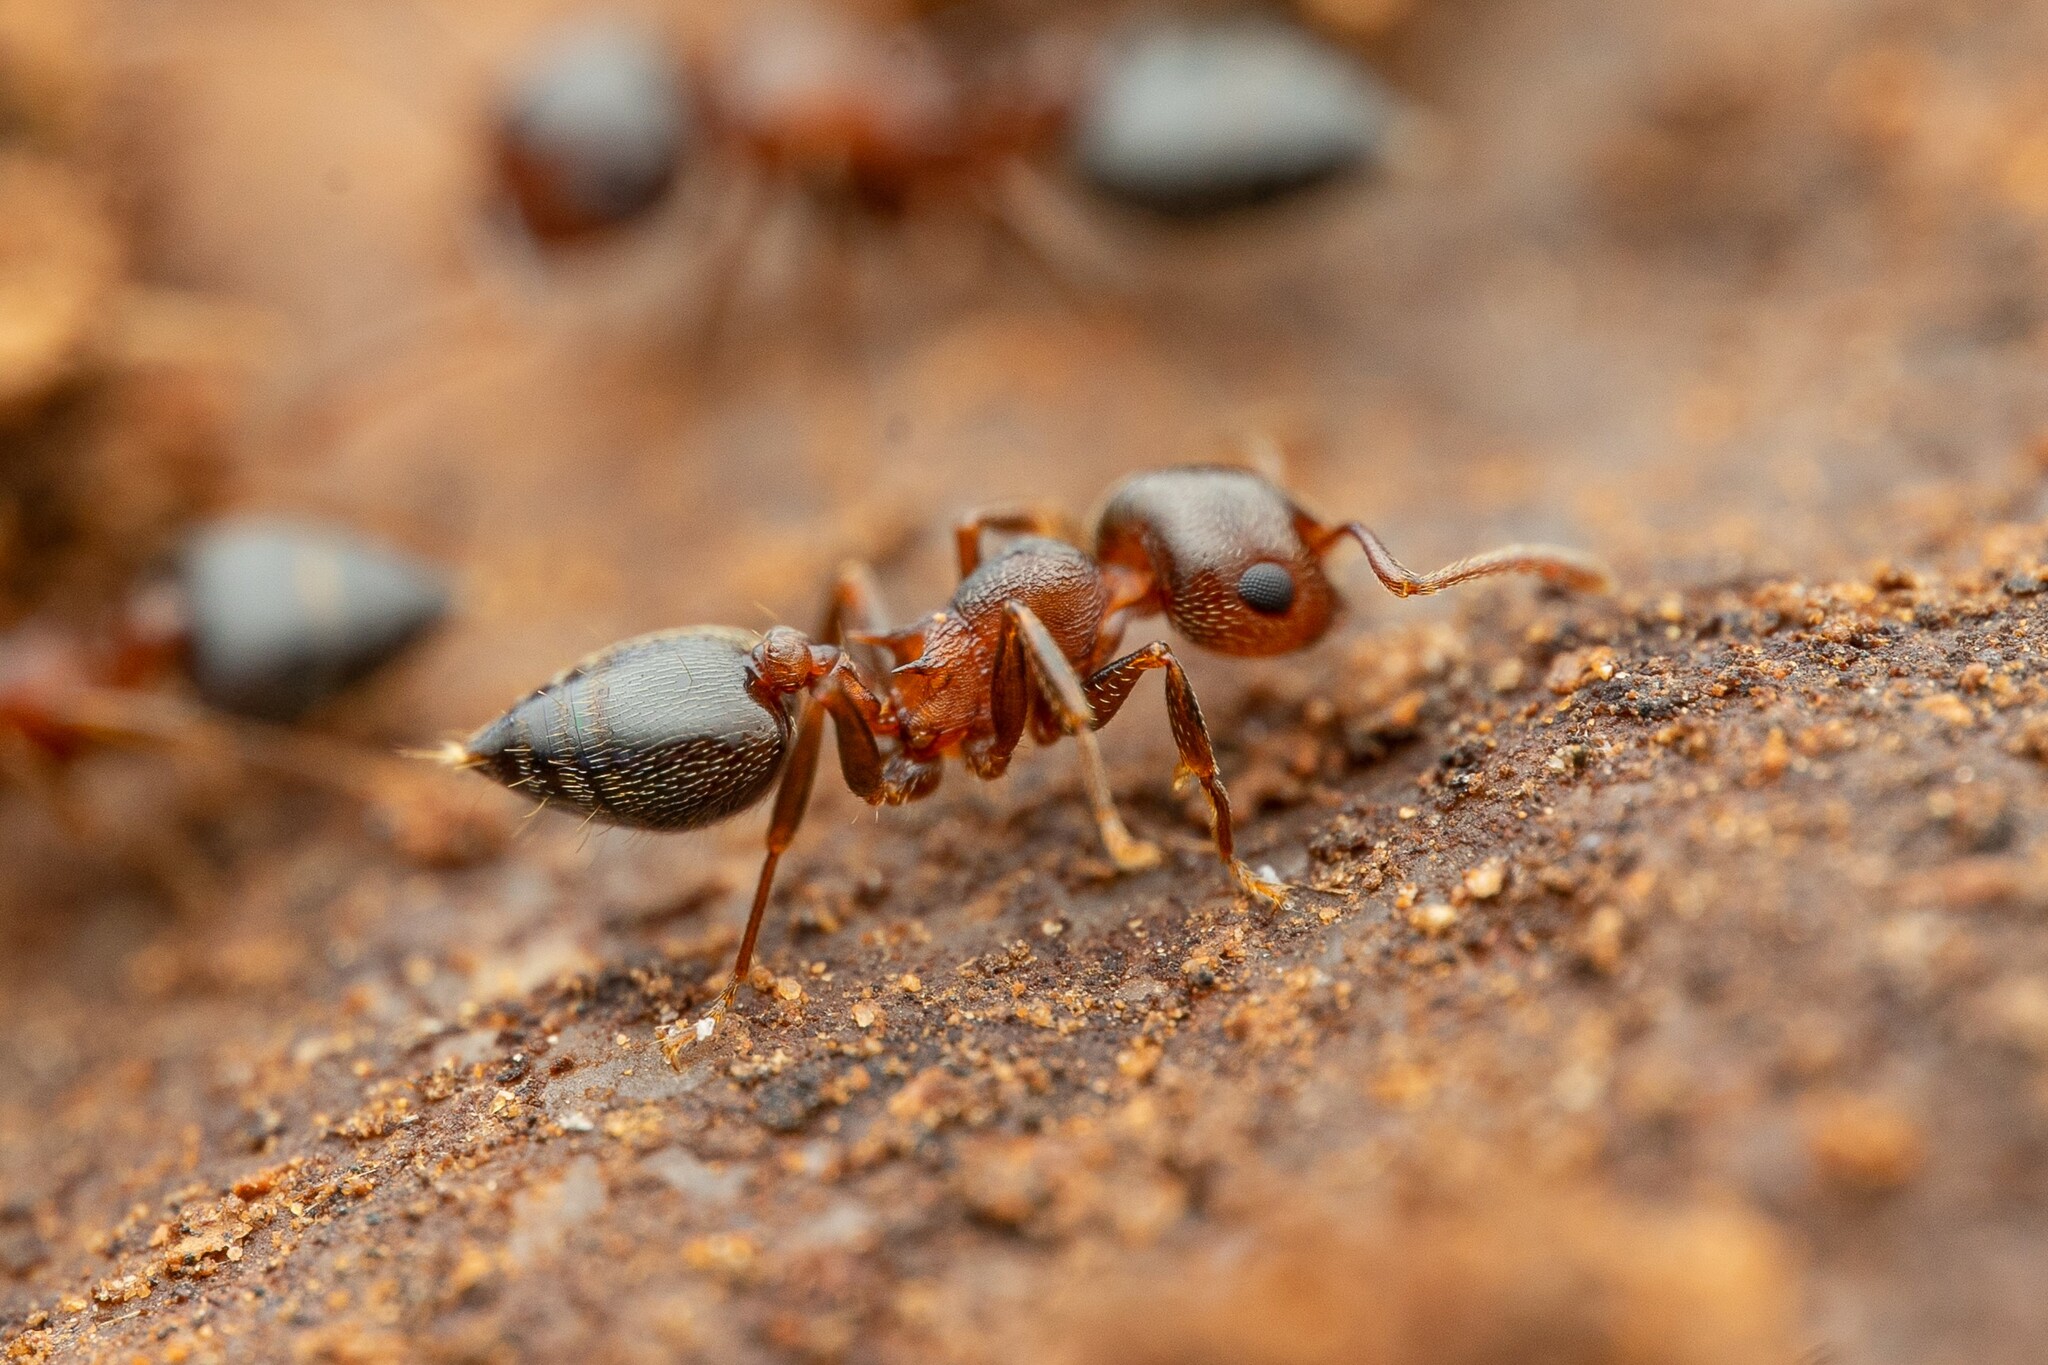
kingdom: Animalia
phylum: Arthropoda
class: Insecta
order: Hymenoptera
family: Formicidae
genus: Crematogaster
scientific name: Crematogaster opuntiae
